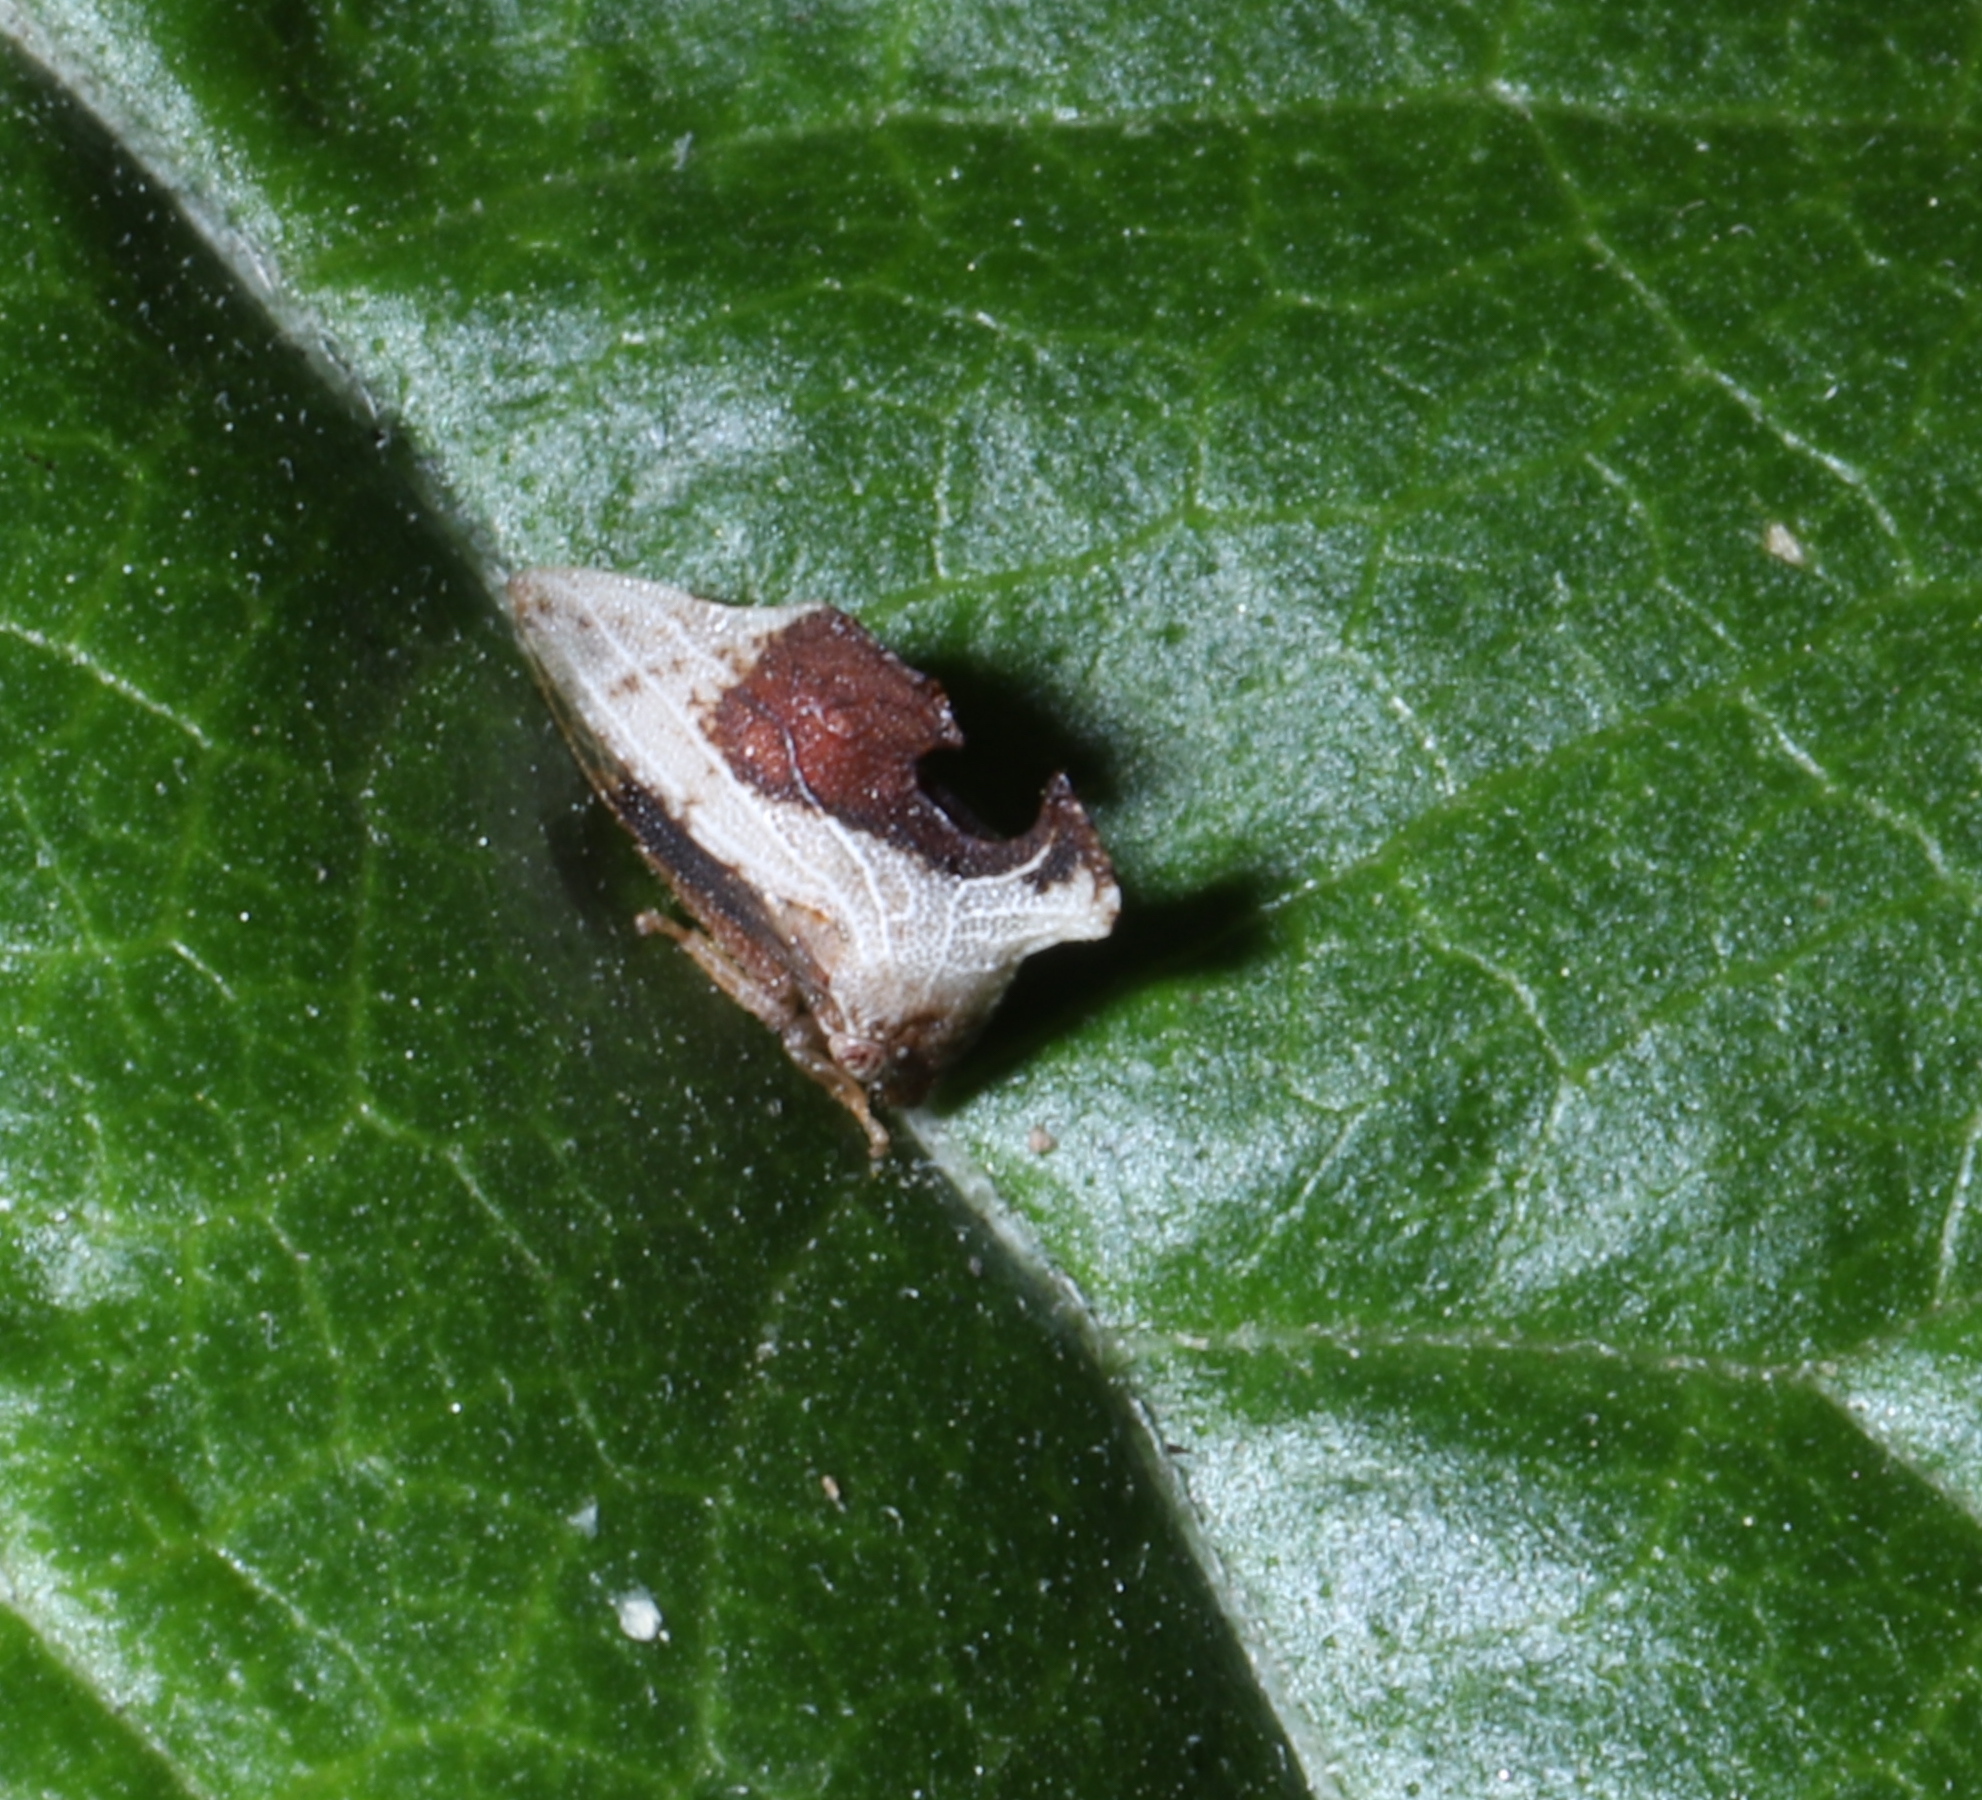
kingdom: Animalia
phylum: Arthropoda
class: Insecta
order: Hemiptera
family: Membracidae
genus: Entylia
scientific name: Entylia carinata
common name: Keeled treehopper
